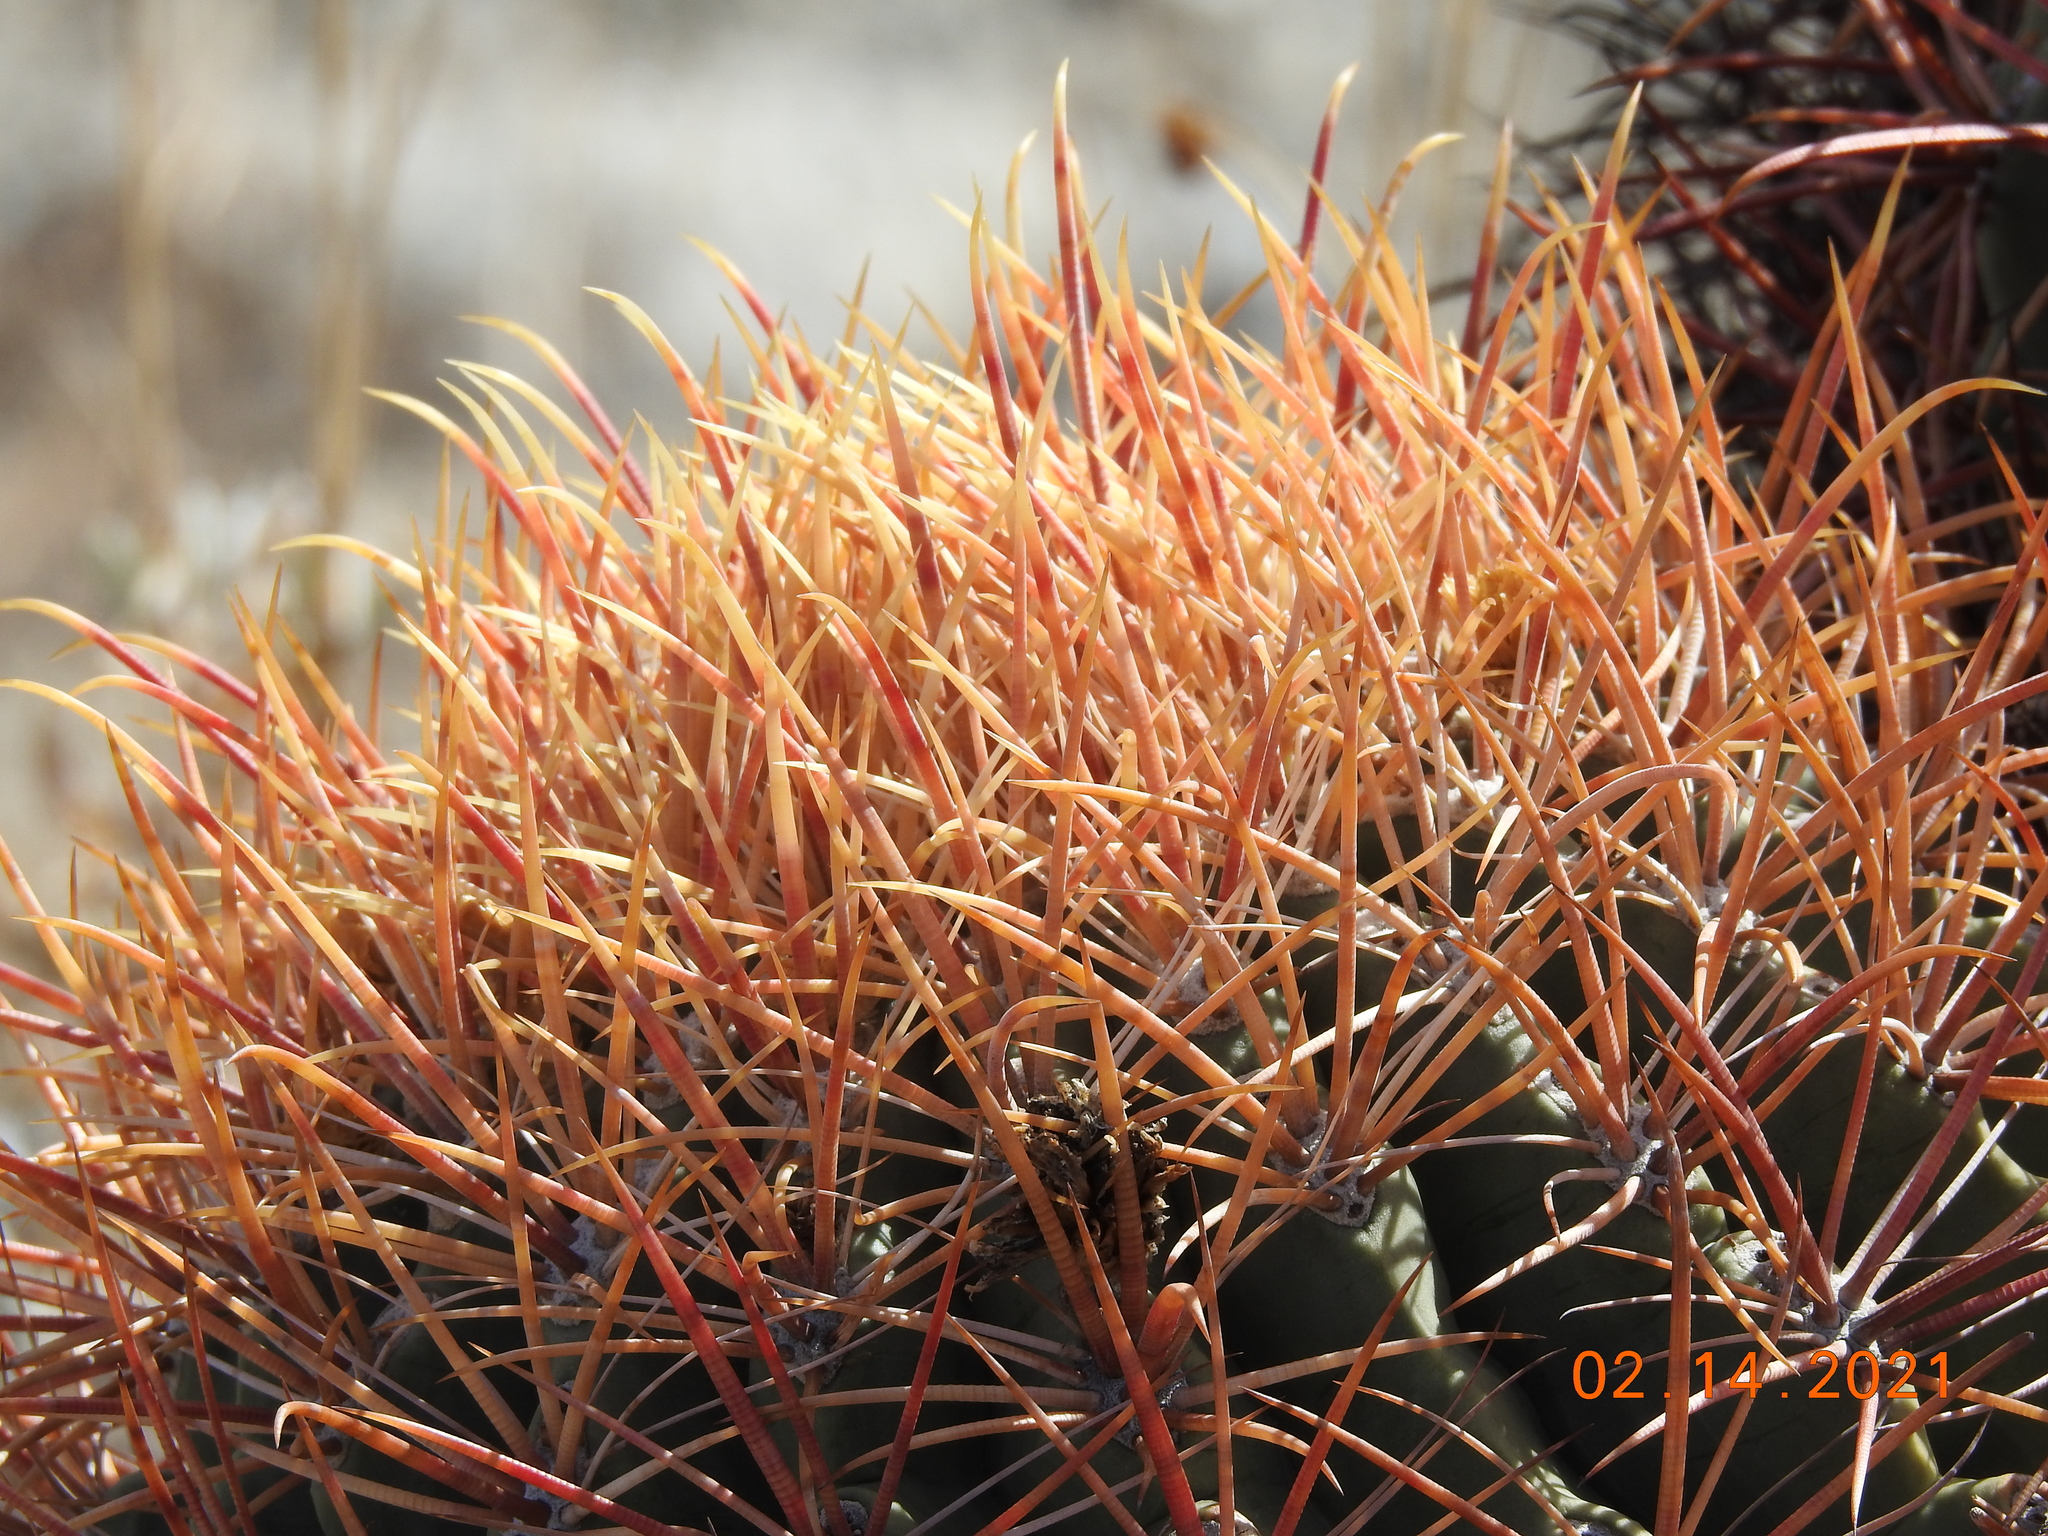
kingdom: Plantae
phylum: Tracheophyta
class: Magnoliopsida
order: Caryophyllales
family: Cactaceae
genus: Ferocactus
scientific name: Ferocactus cylindraceus
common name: California barrel cactus
